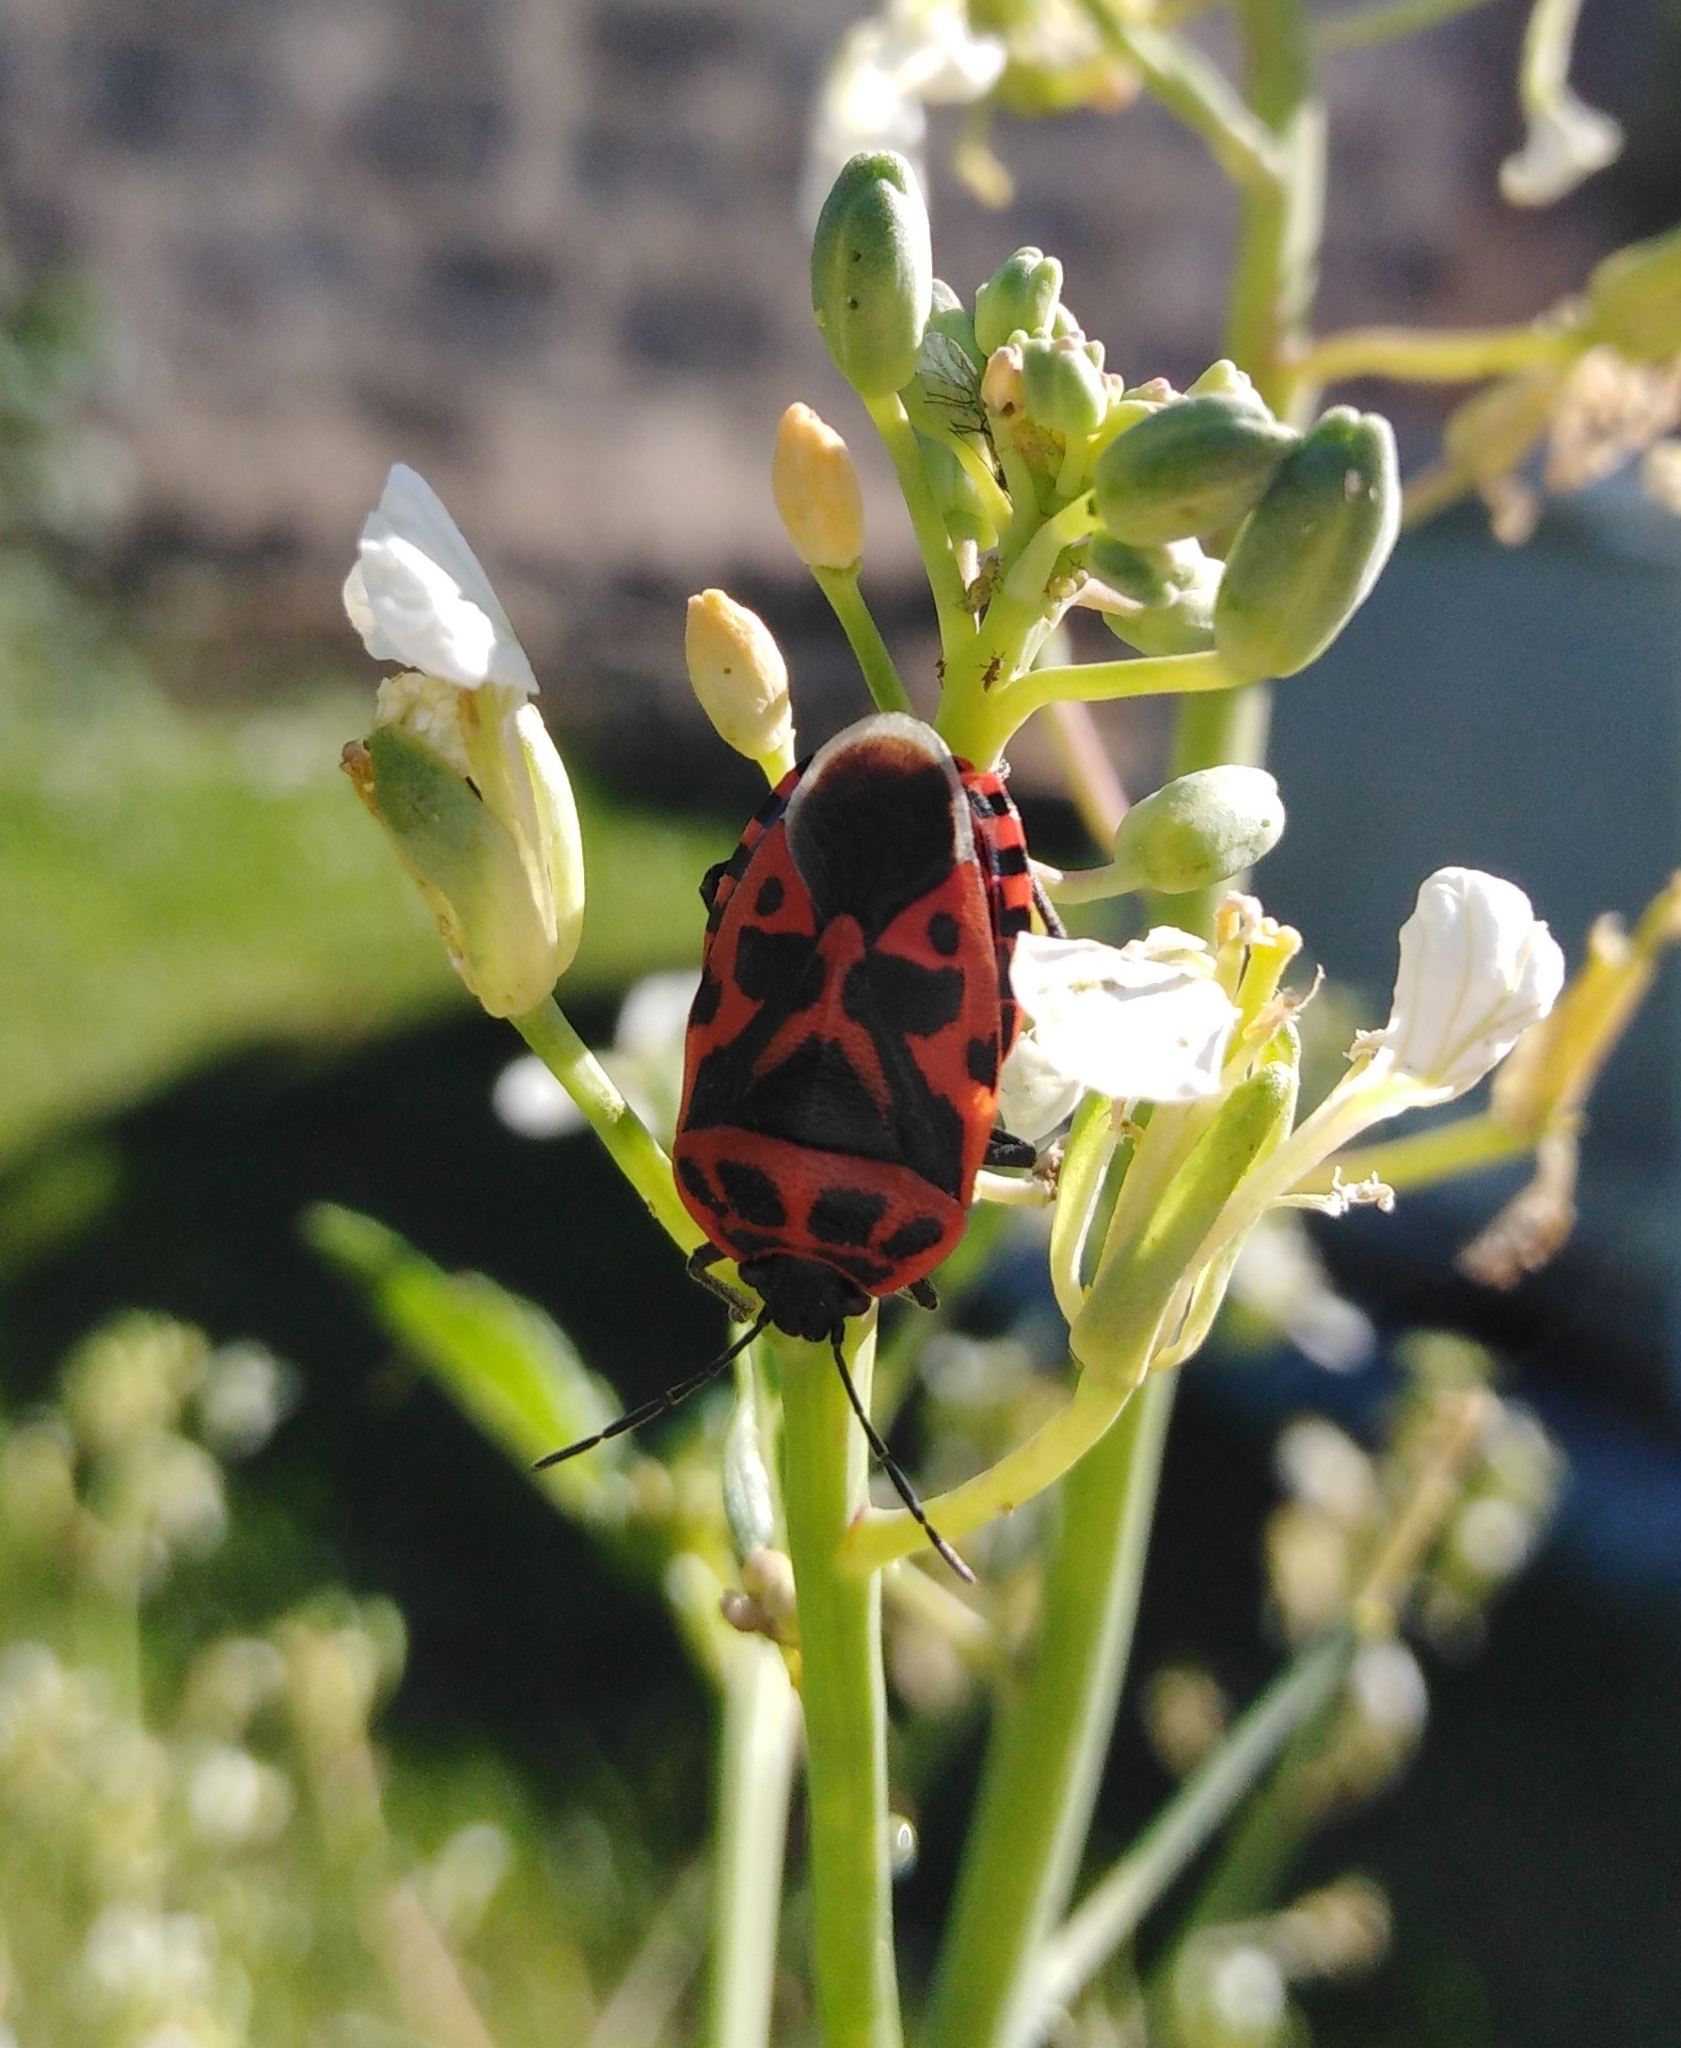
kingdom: Animalia
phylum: Arthropoda
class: Insecta
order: Hemiptera
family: Pentatomidae
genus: Eurydema
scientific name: Eurydema ventralis
